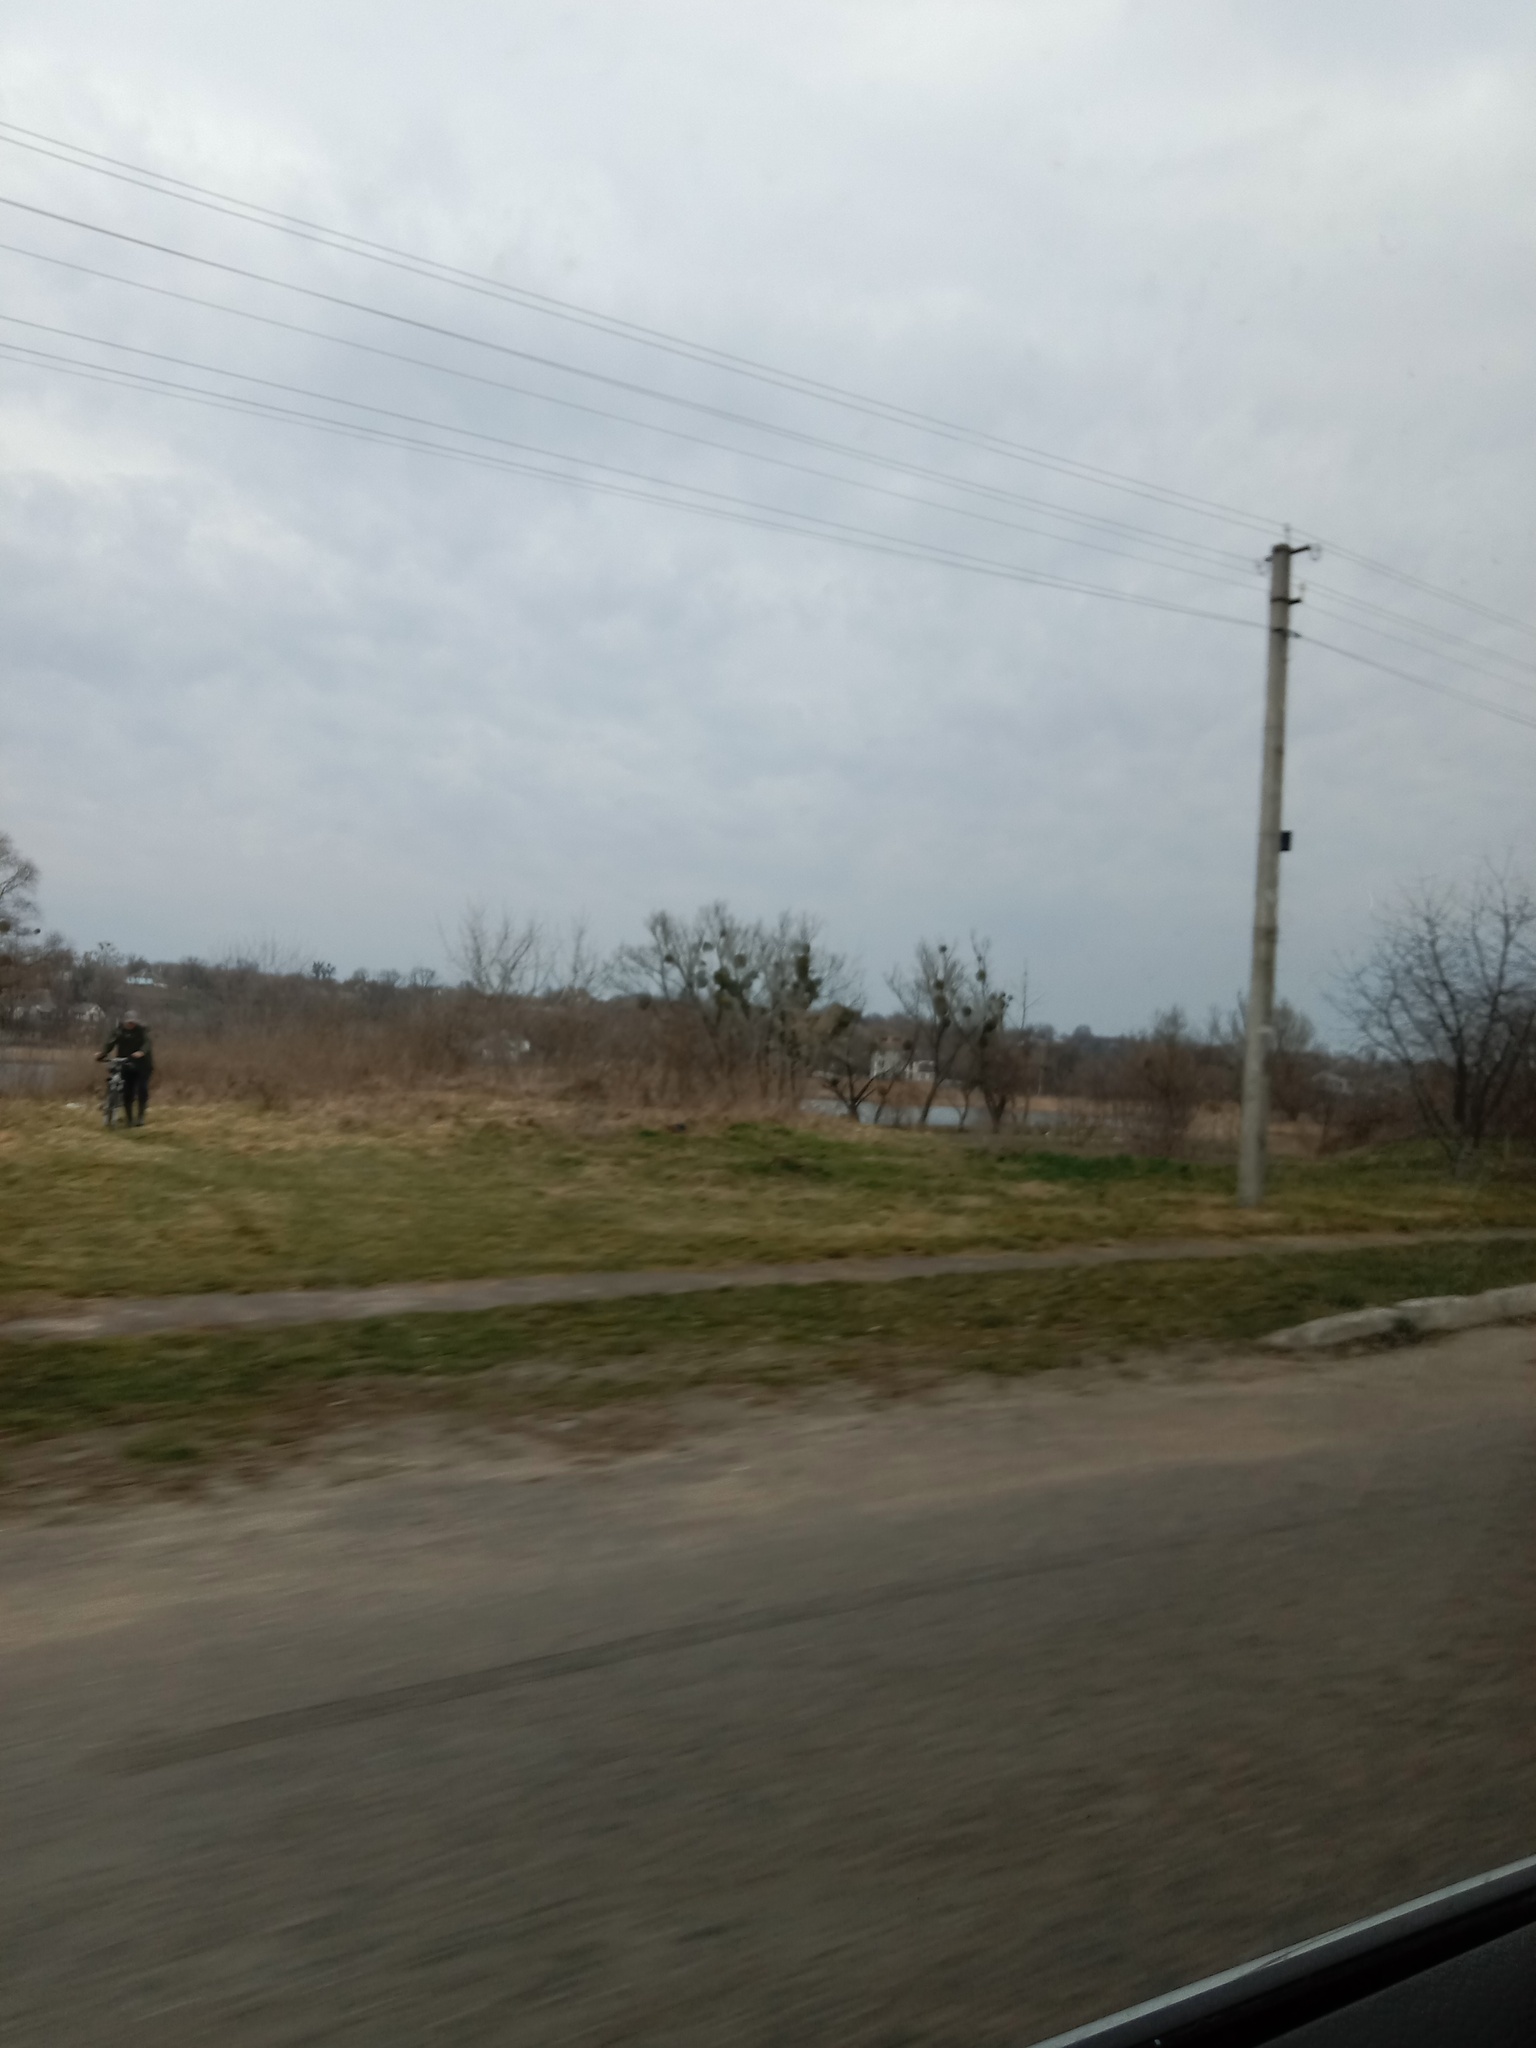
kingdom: Plantae
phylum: Tracheophyta
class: Magnoliopsida
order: Santalales
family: Viscaceae
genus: Viscum
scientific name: Viscum album
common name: Mistletoe
